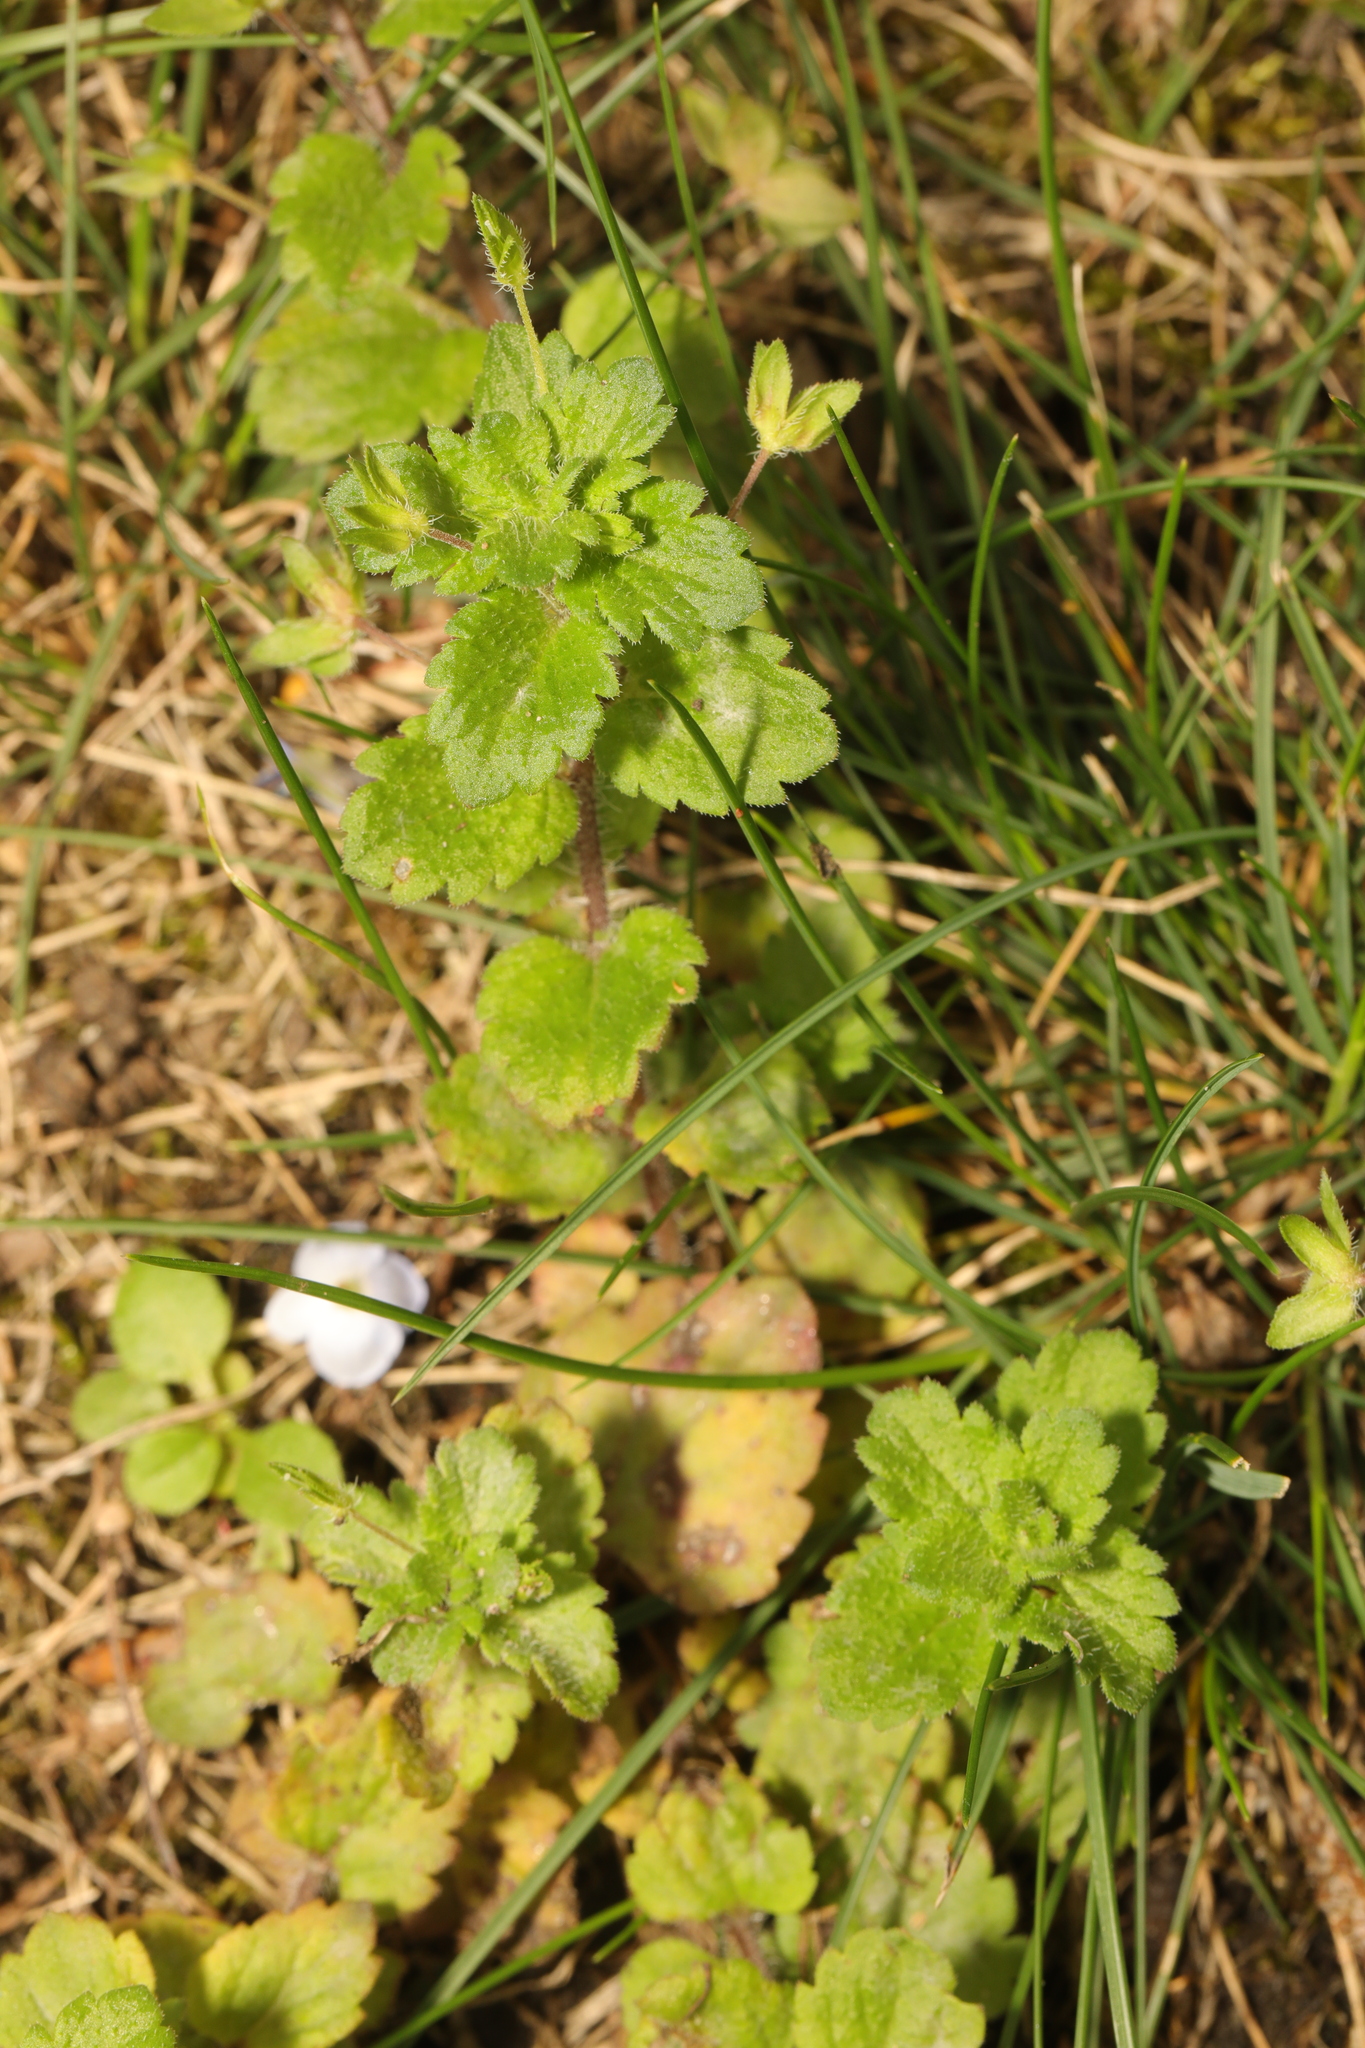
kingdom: Plantae
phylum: Tracheophyta
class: Magnoliopsida
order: Lamiales
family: Plantaginaceae
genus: Veronica
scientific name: Veronica persica
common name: Common field-speedwell
